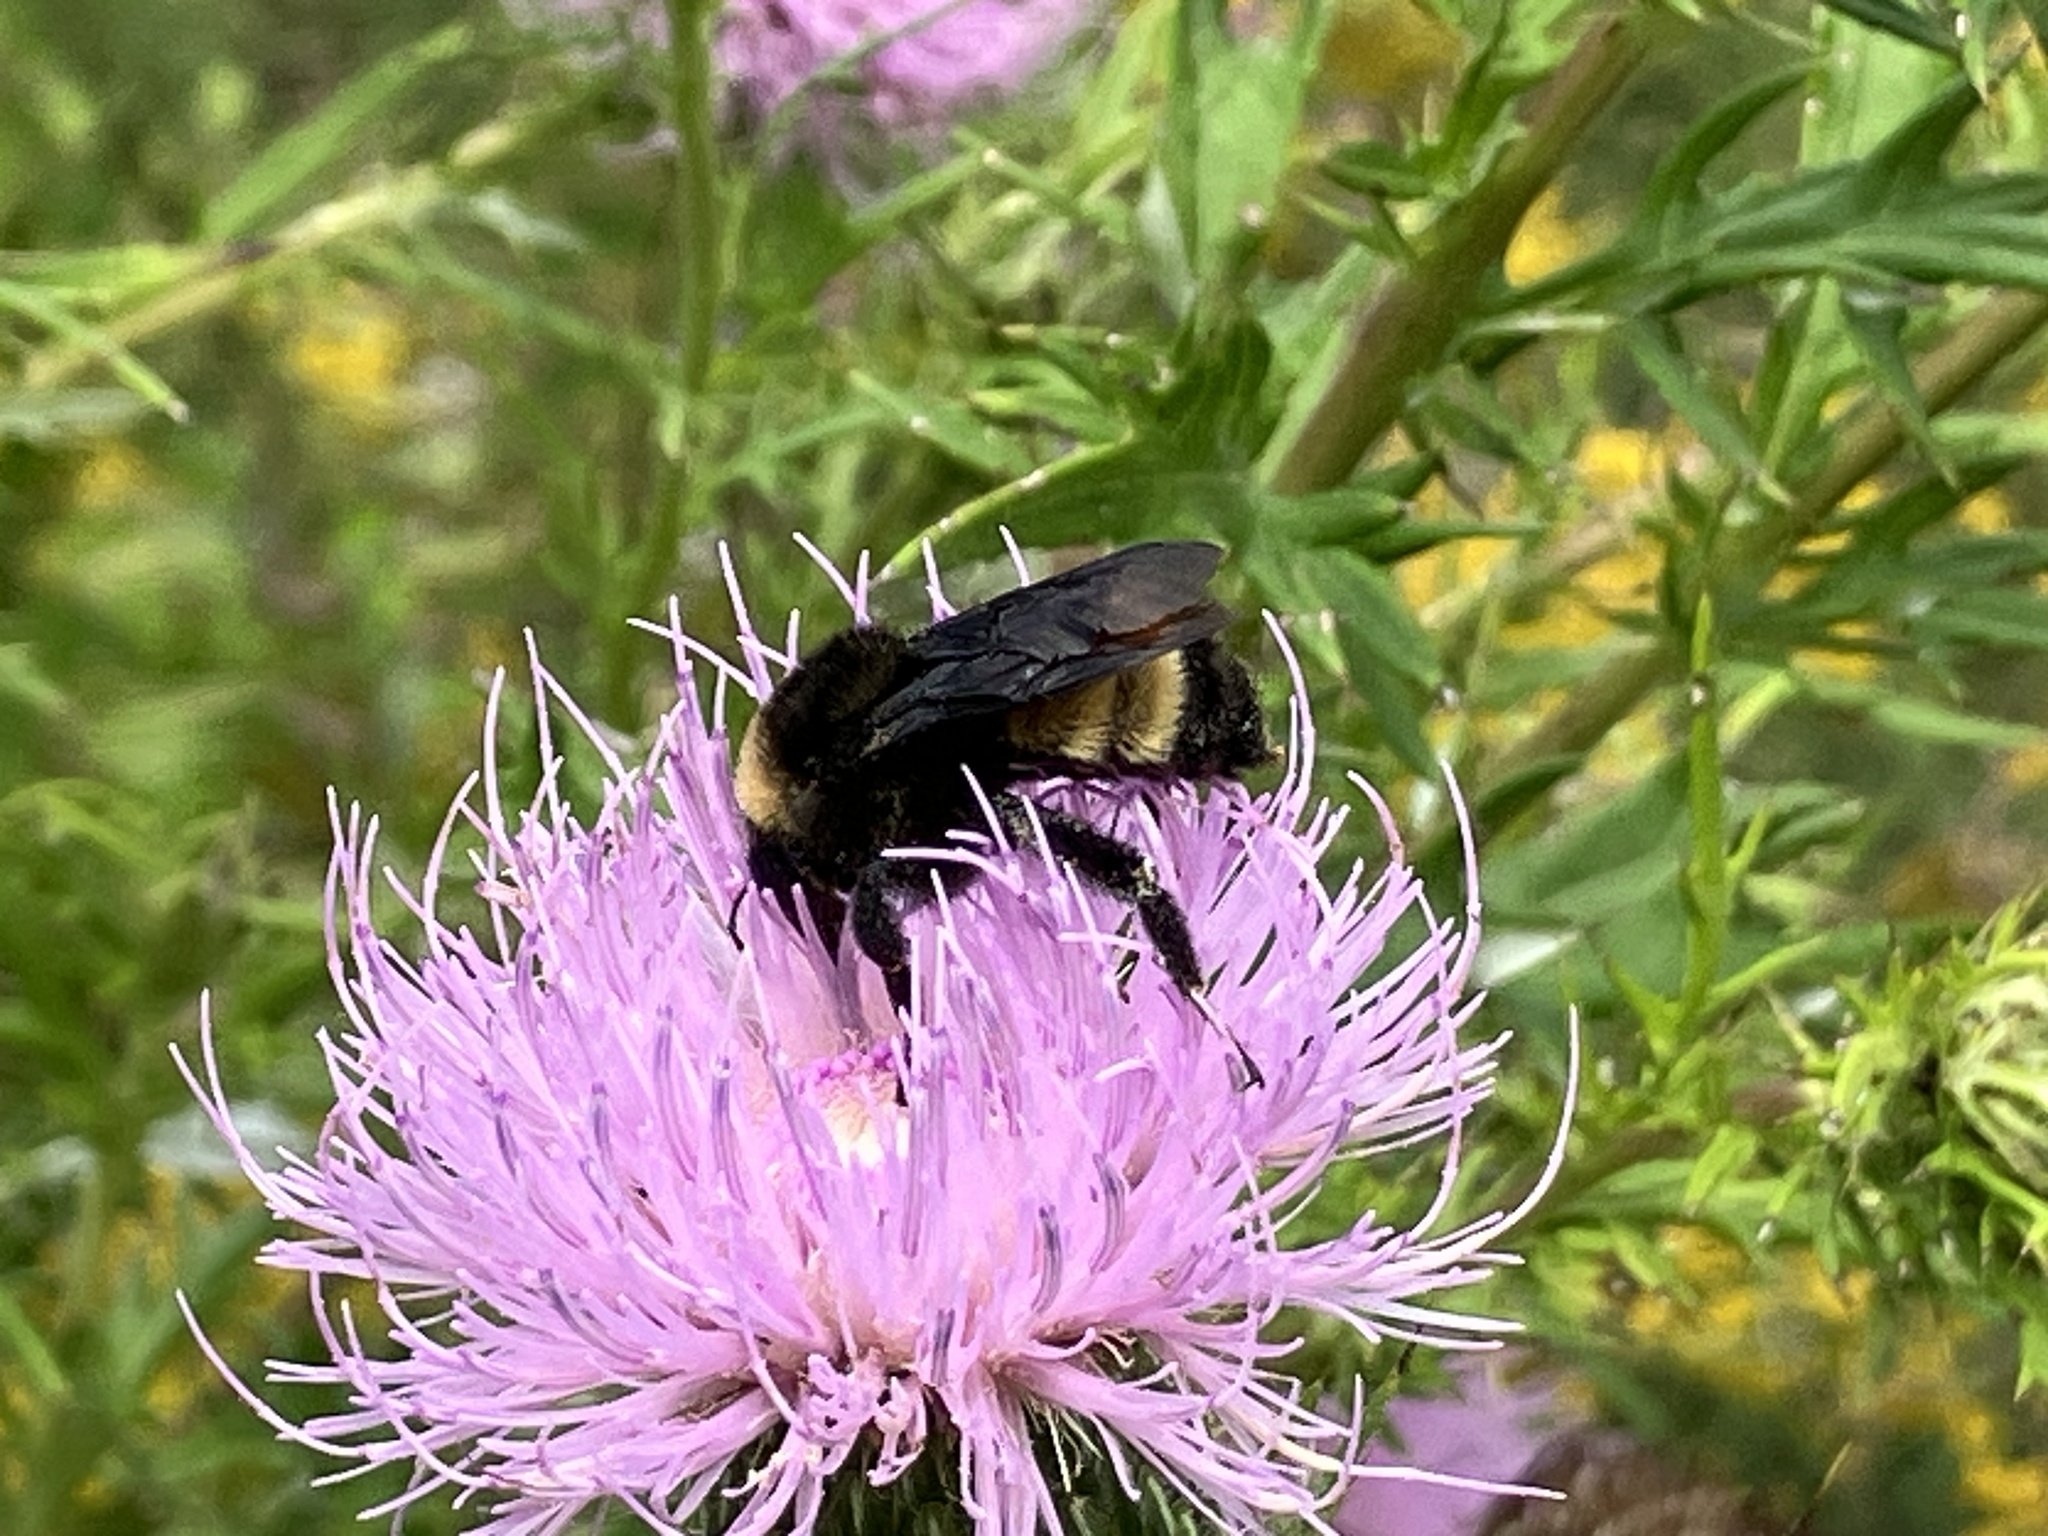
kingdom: Animalia
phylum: Arthropoda
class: Insecta
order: Hymenoptera
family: Apidae
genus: Bombus
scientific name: Bombus pensylvanicus
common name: Bumble bee
